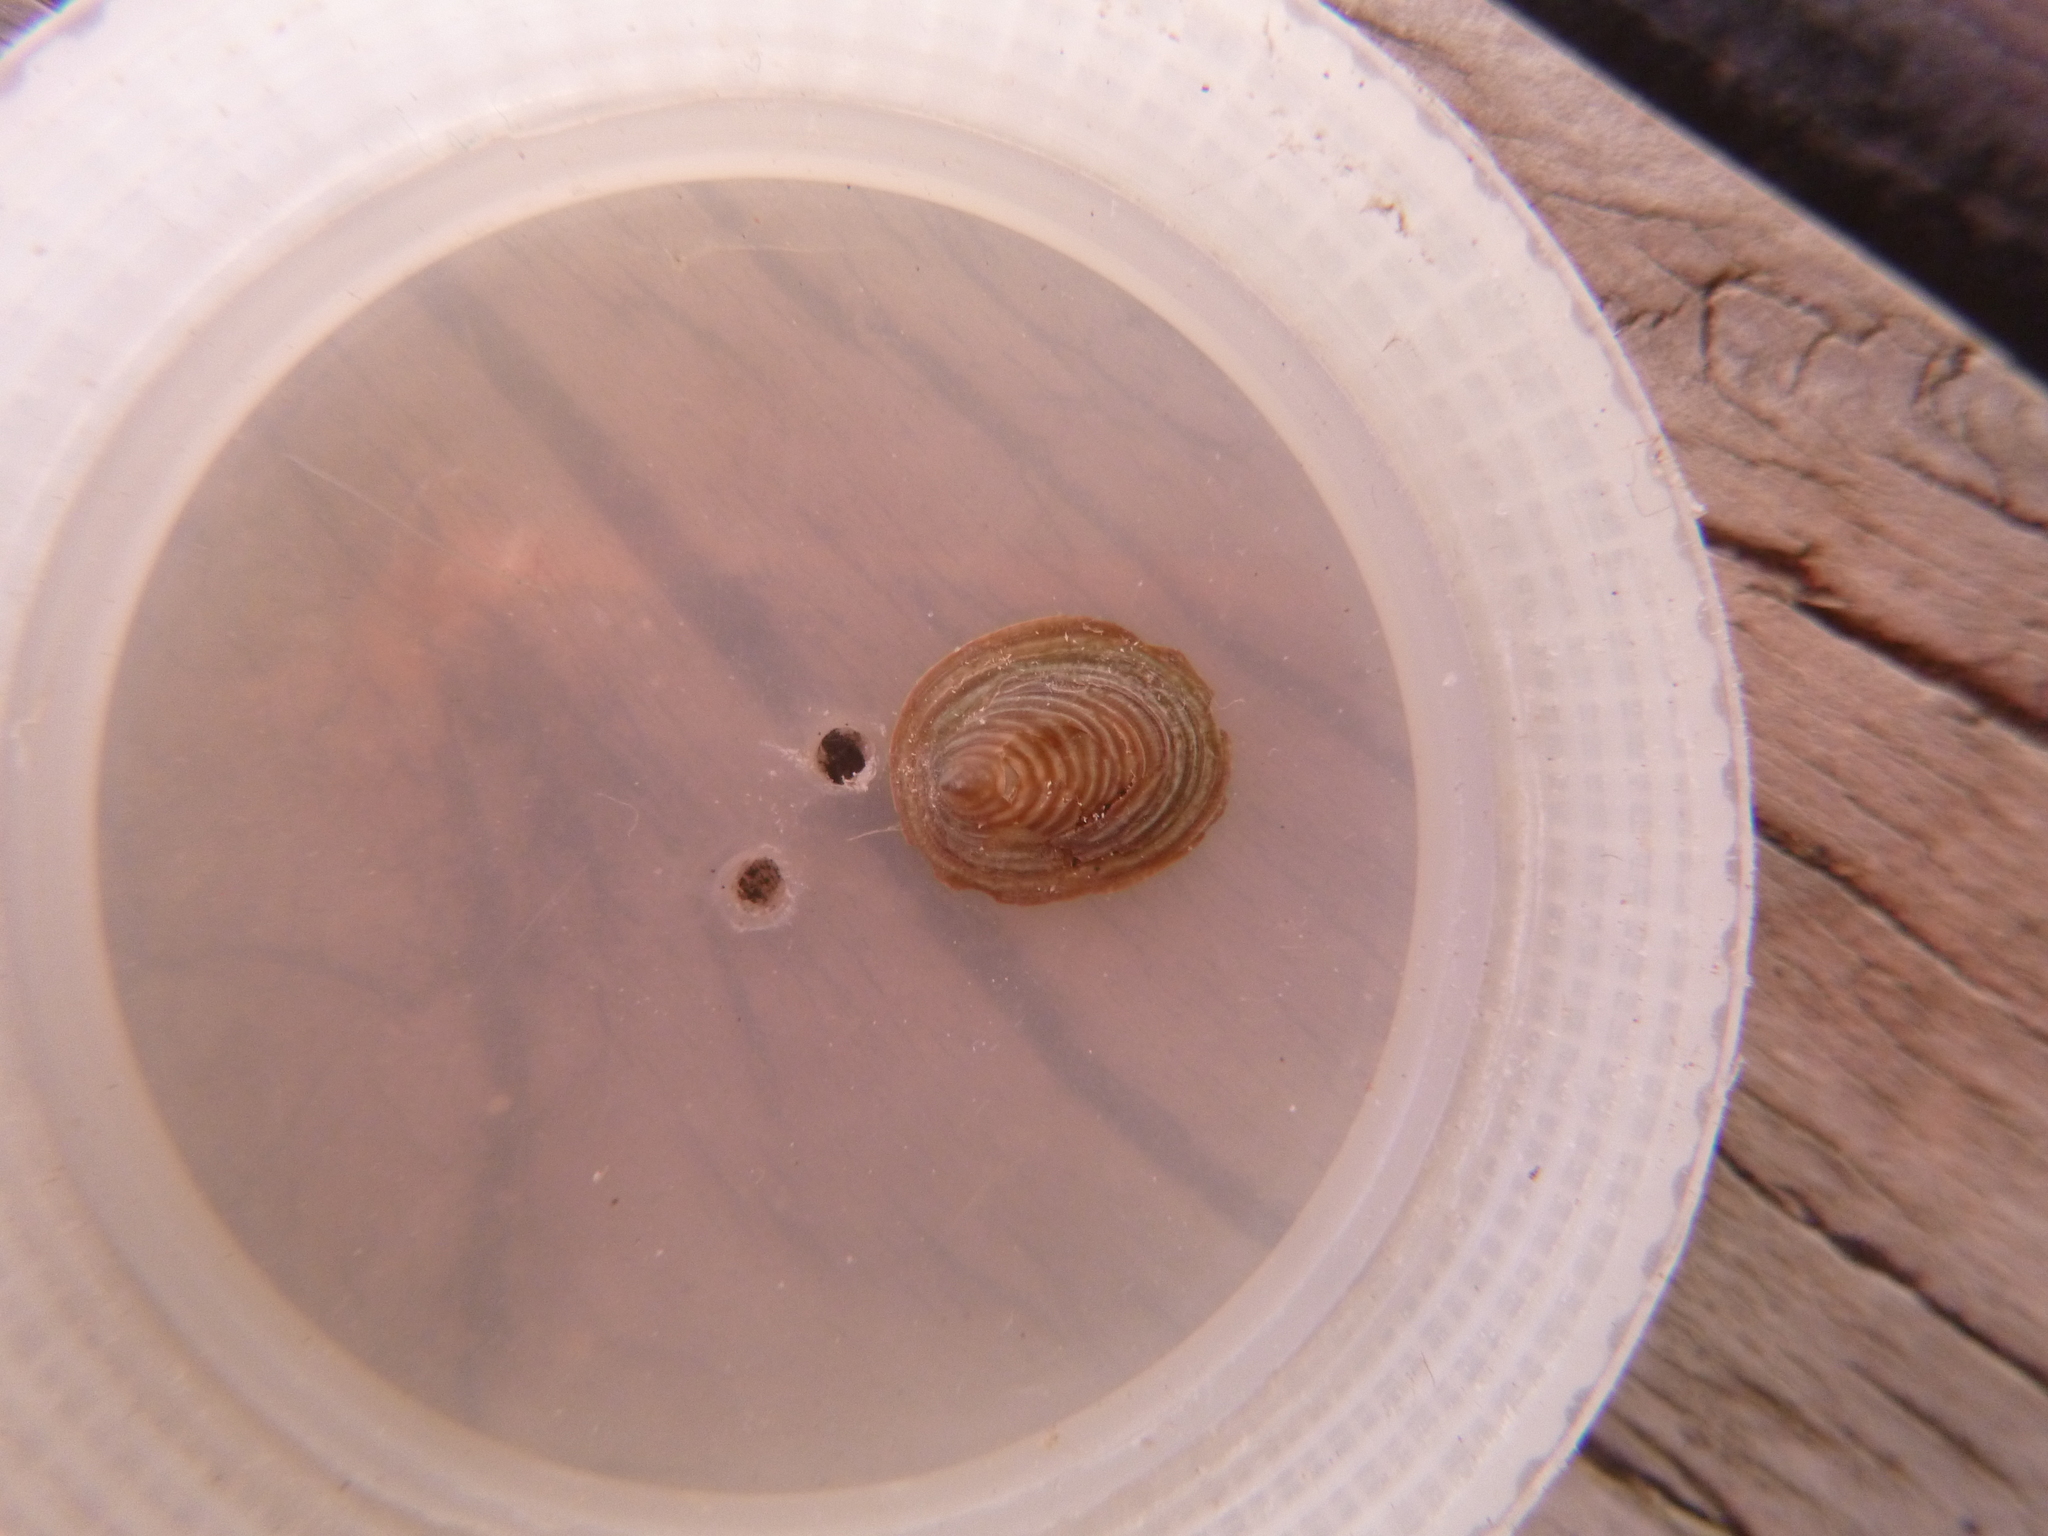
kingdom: Animalia
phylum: Mollusca
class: Gastropoda
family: Lottiidae
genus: Atalacmea
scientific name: Atalacmea fragilis
